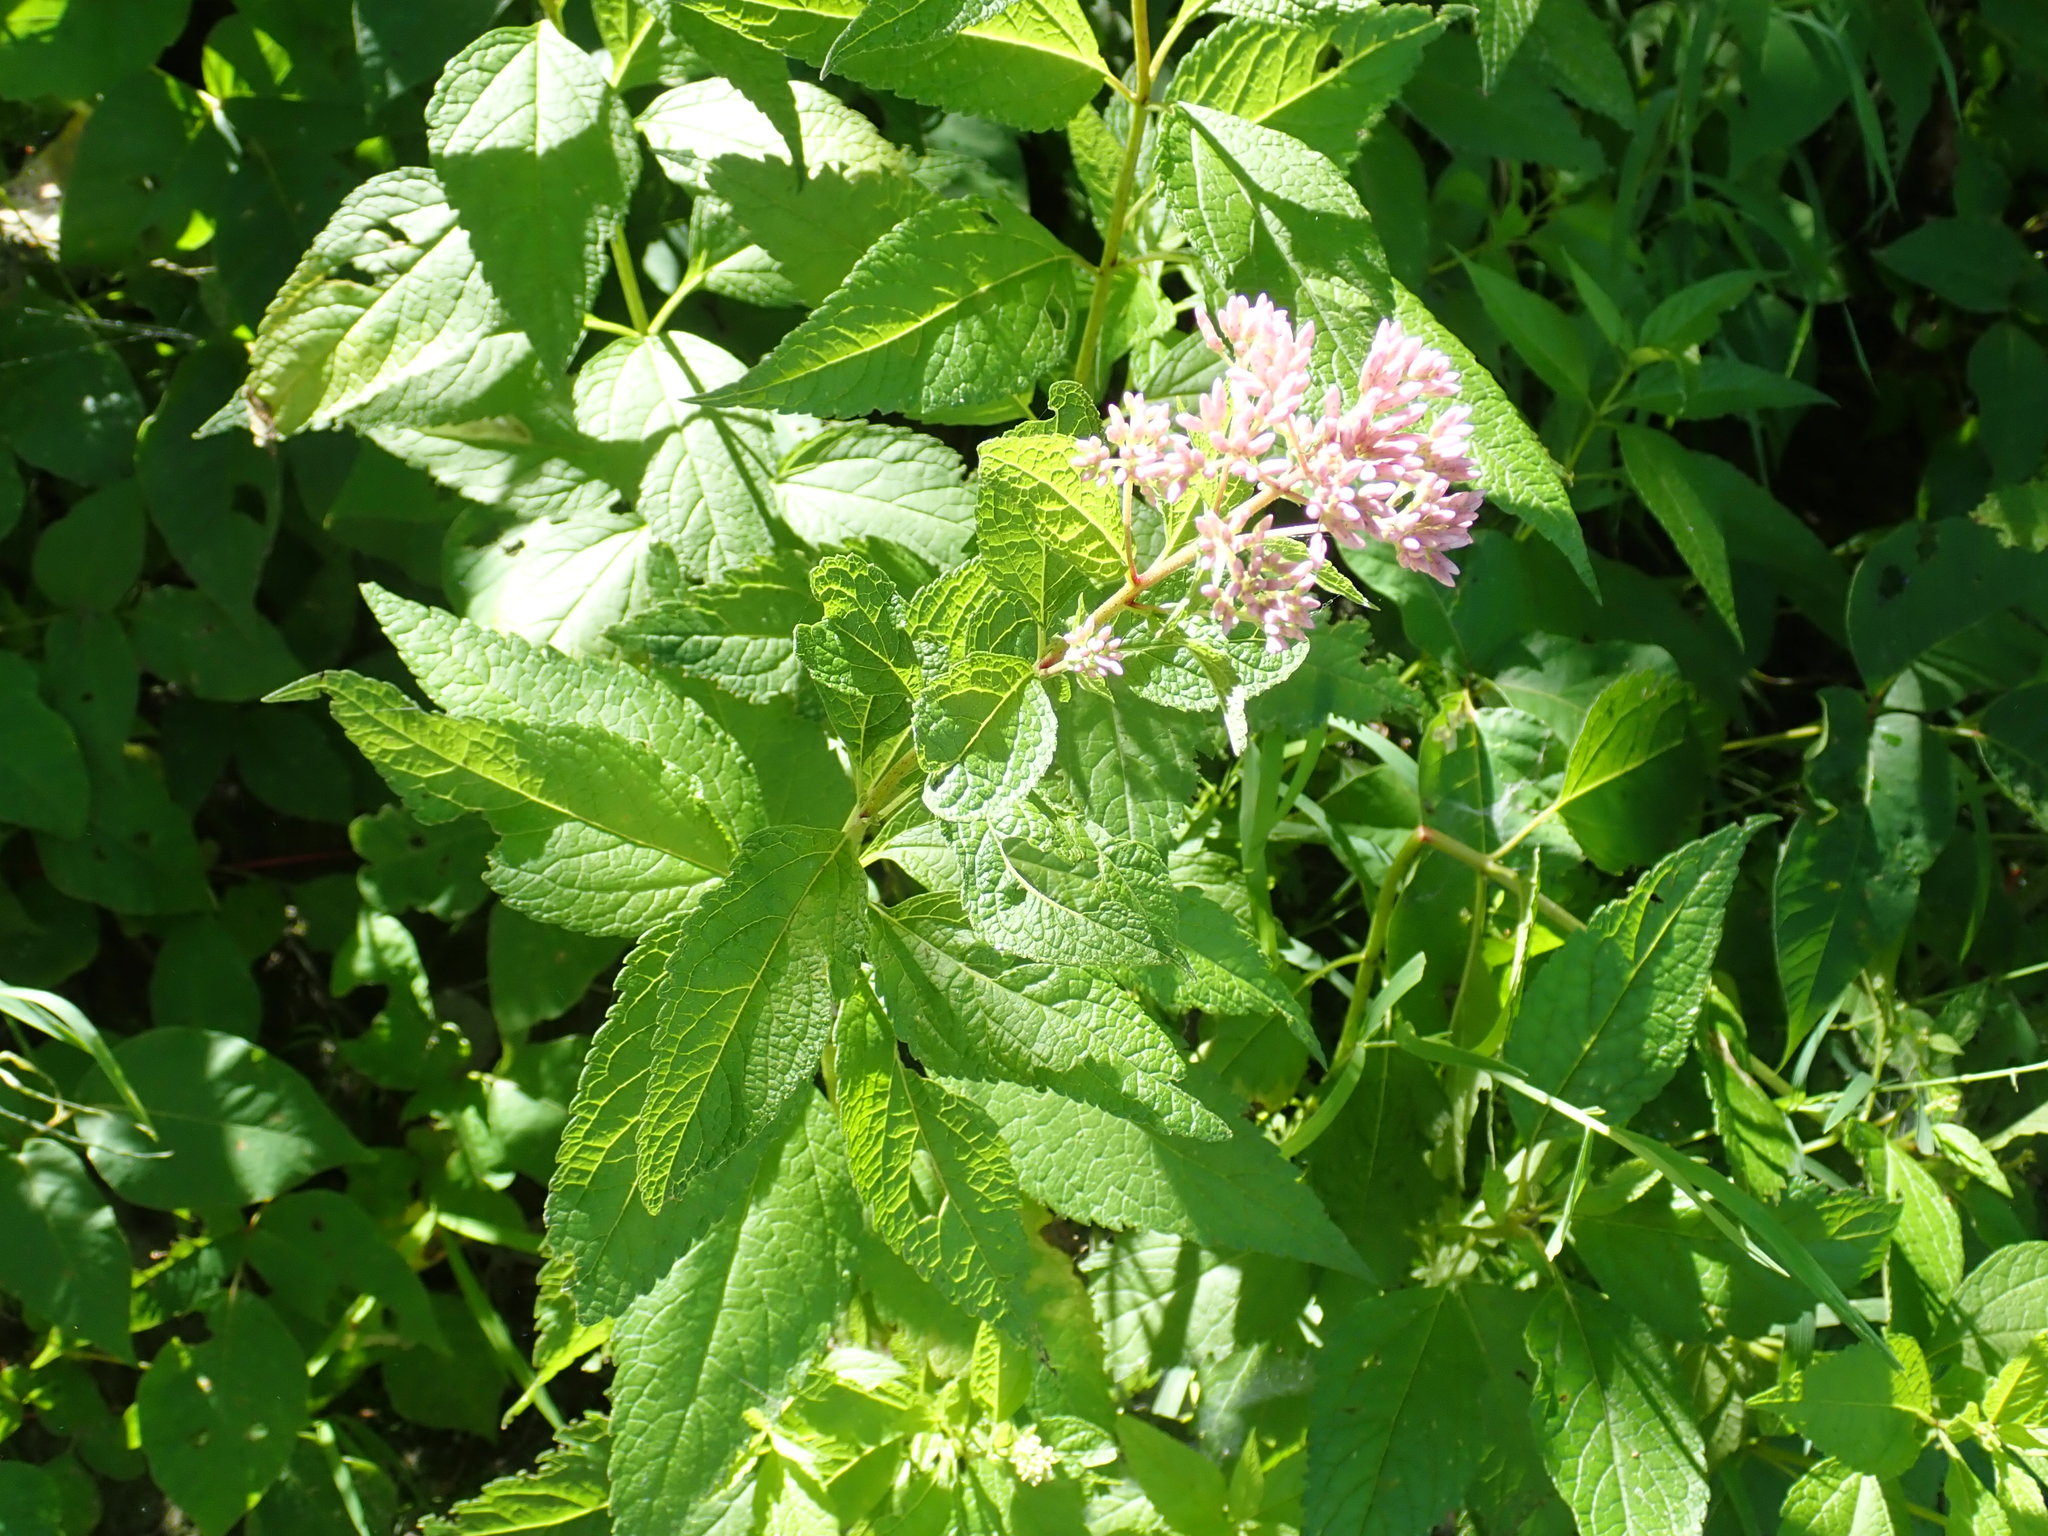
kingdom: Plantae
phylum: Tracheophyta
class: Magnoliopsida
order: Asterales
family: Asteraceae
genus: Eutrochium
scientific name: Eutrochium
